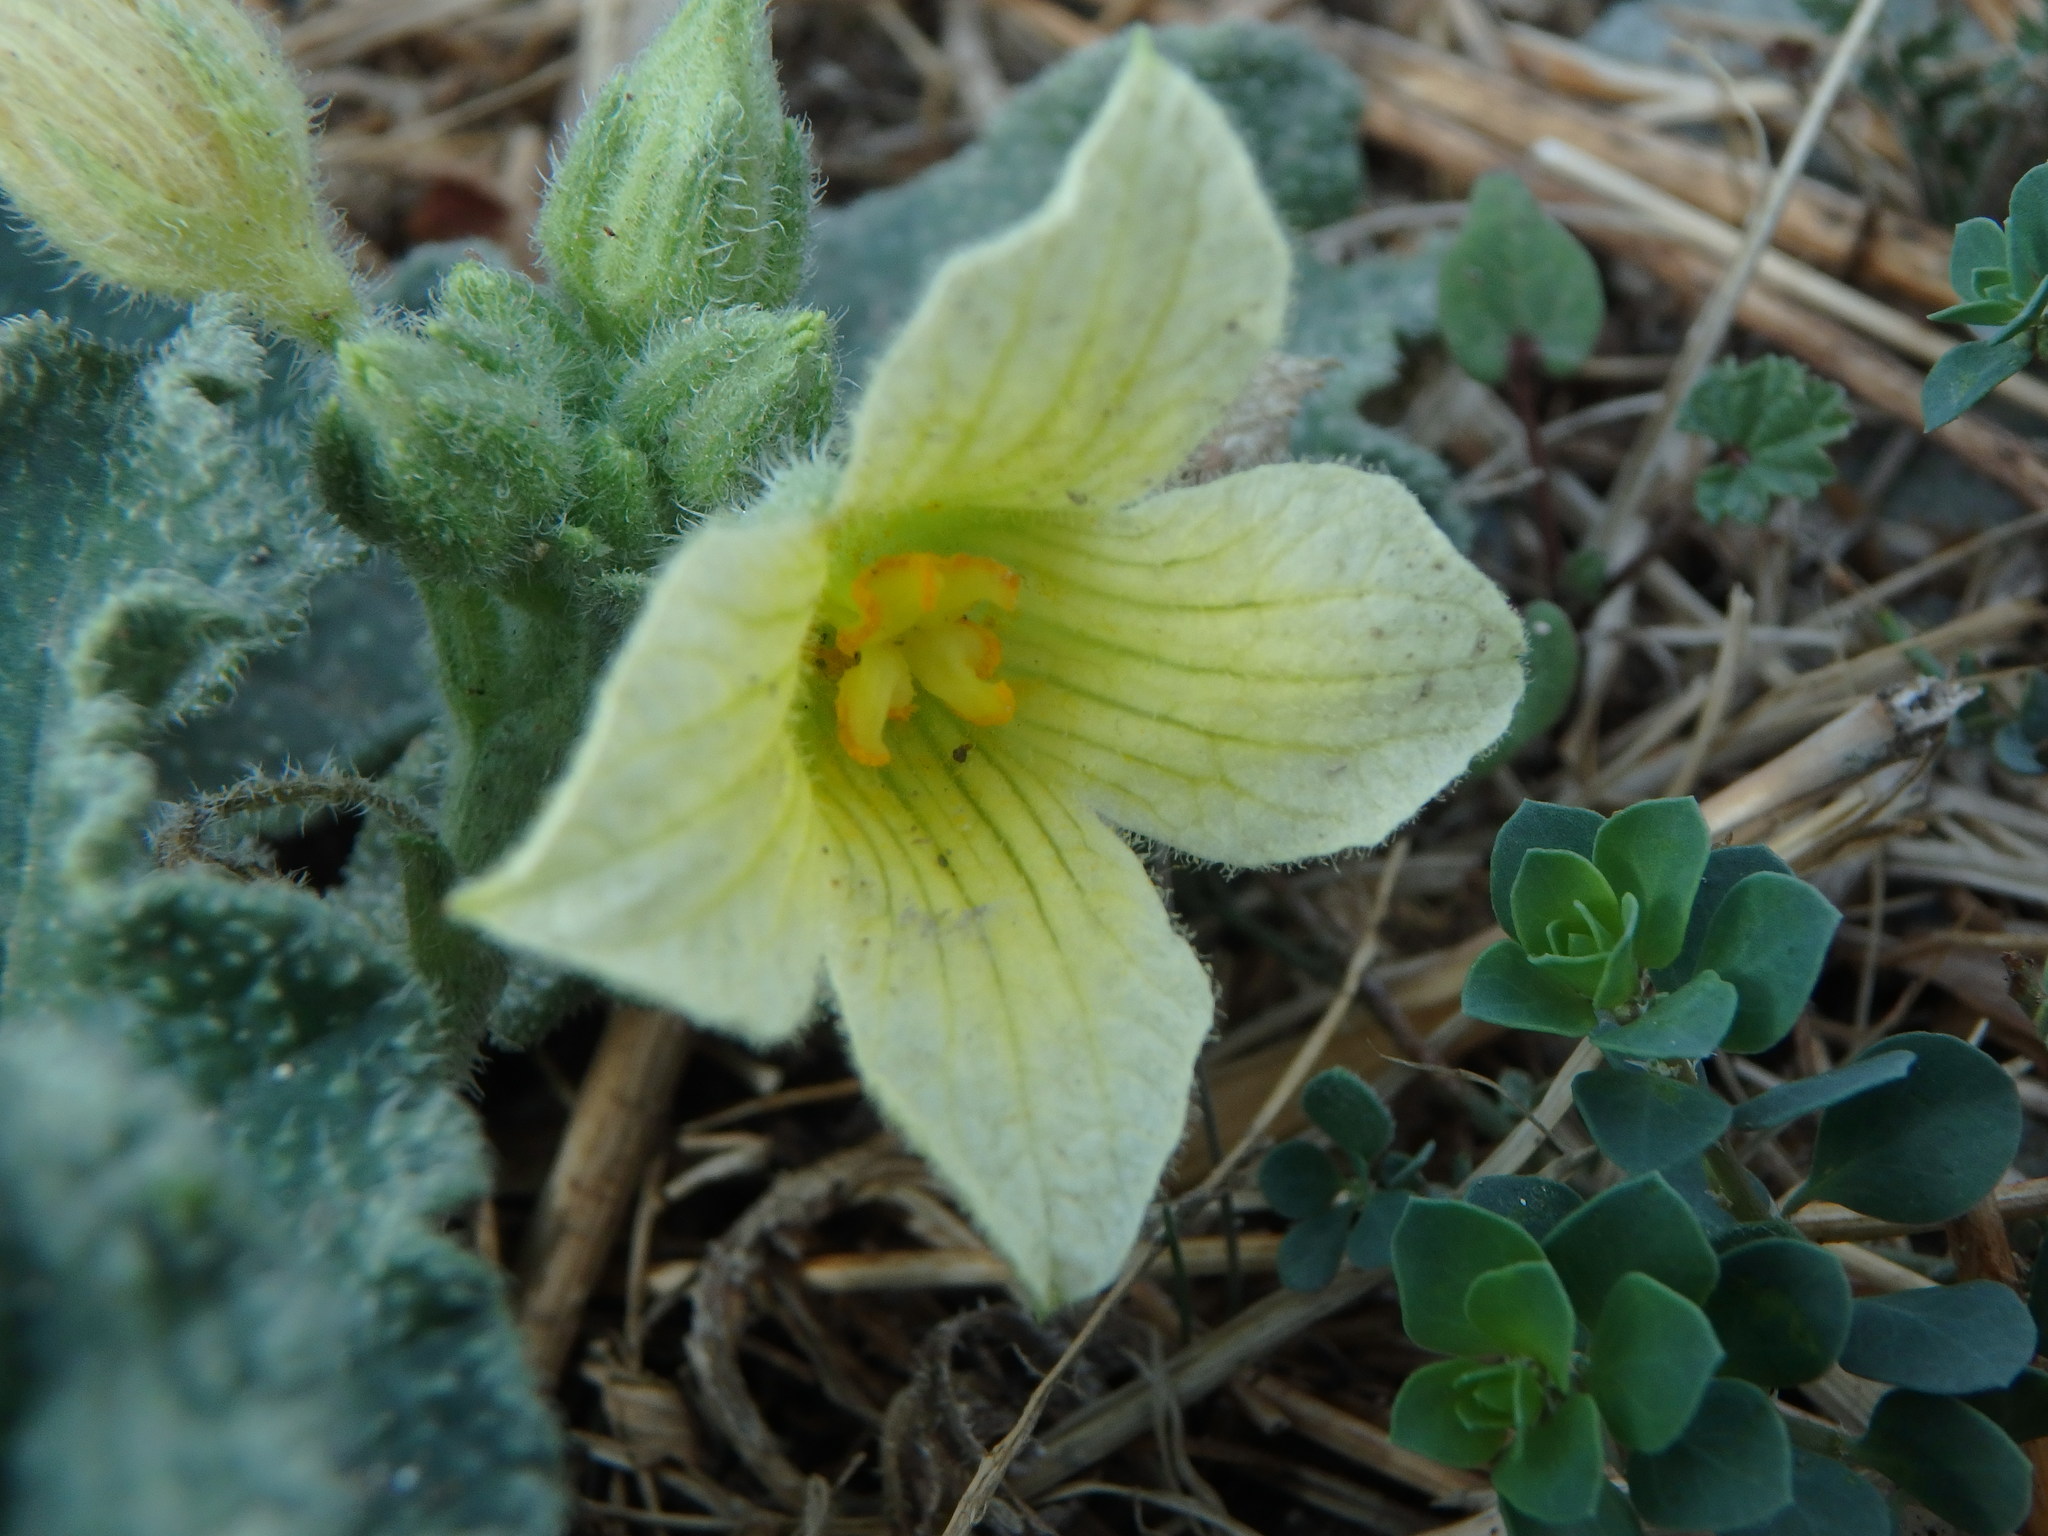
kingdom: Plantae
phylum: Tracheophyta
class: Magnoliopsida
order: Cucurbitales
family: Cucurbitaceae
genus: Ecballium
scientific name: Ecballium elaterium
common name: Squirting cucumber
